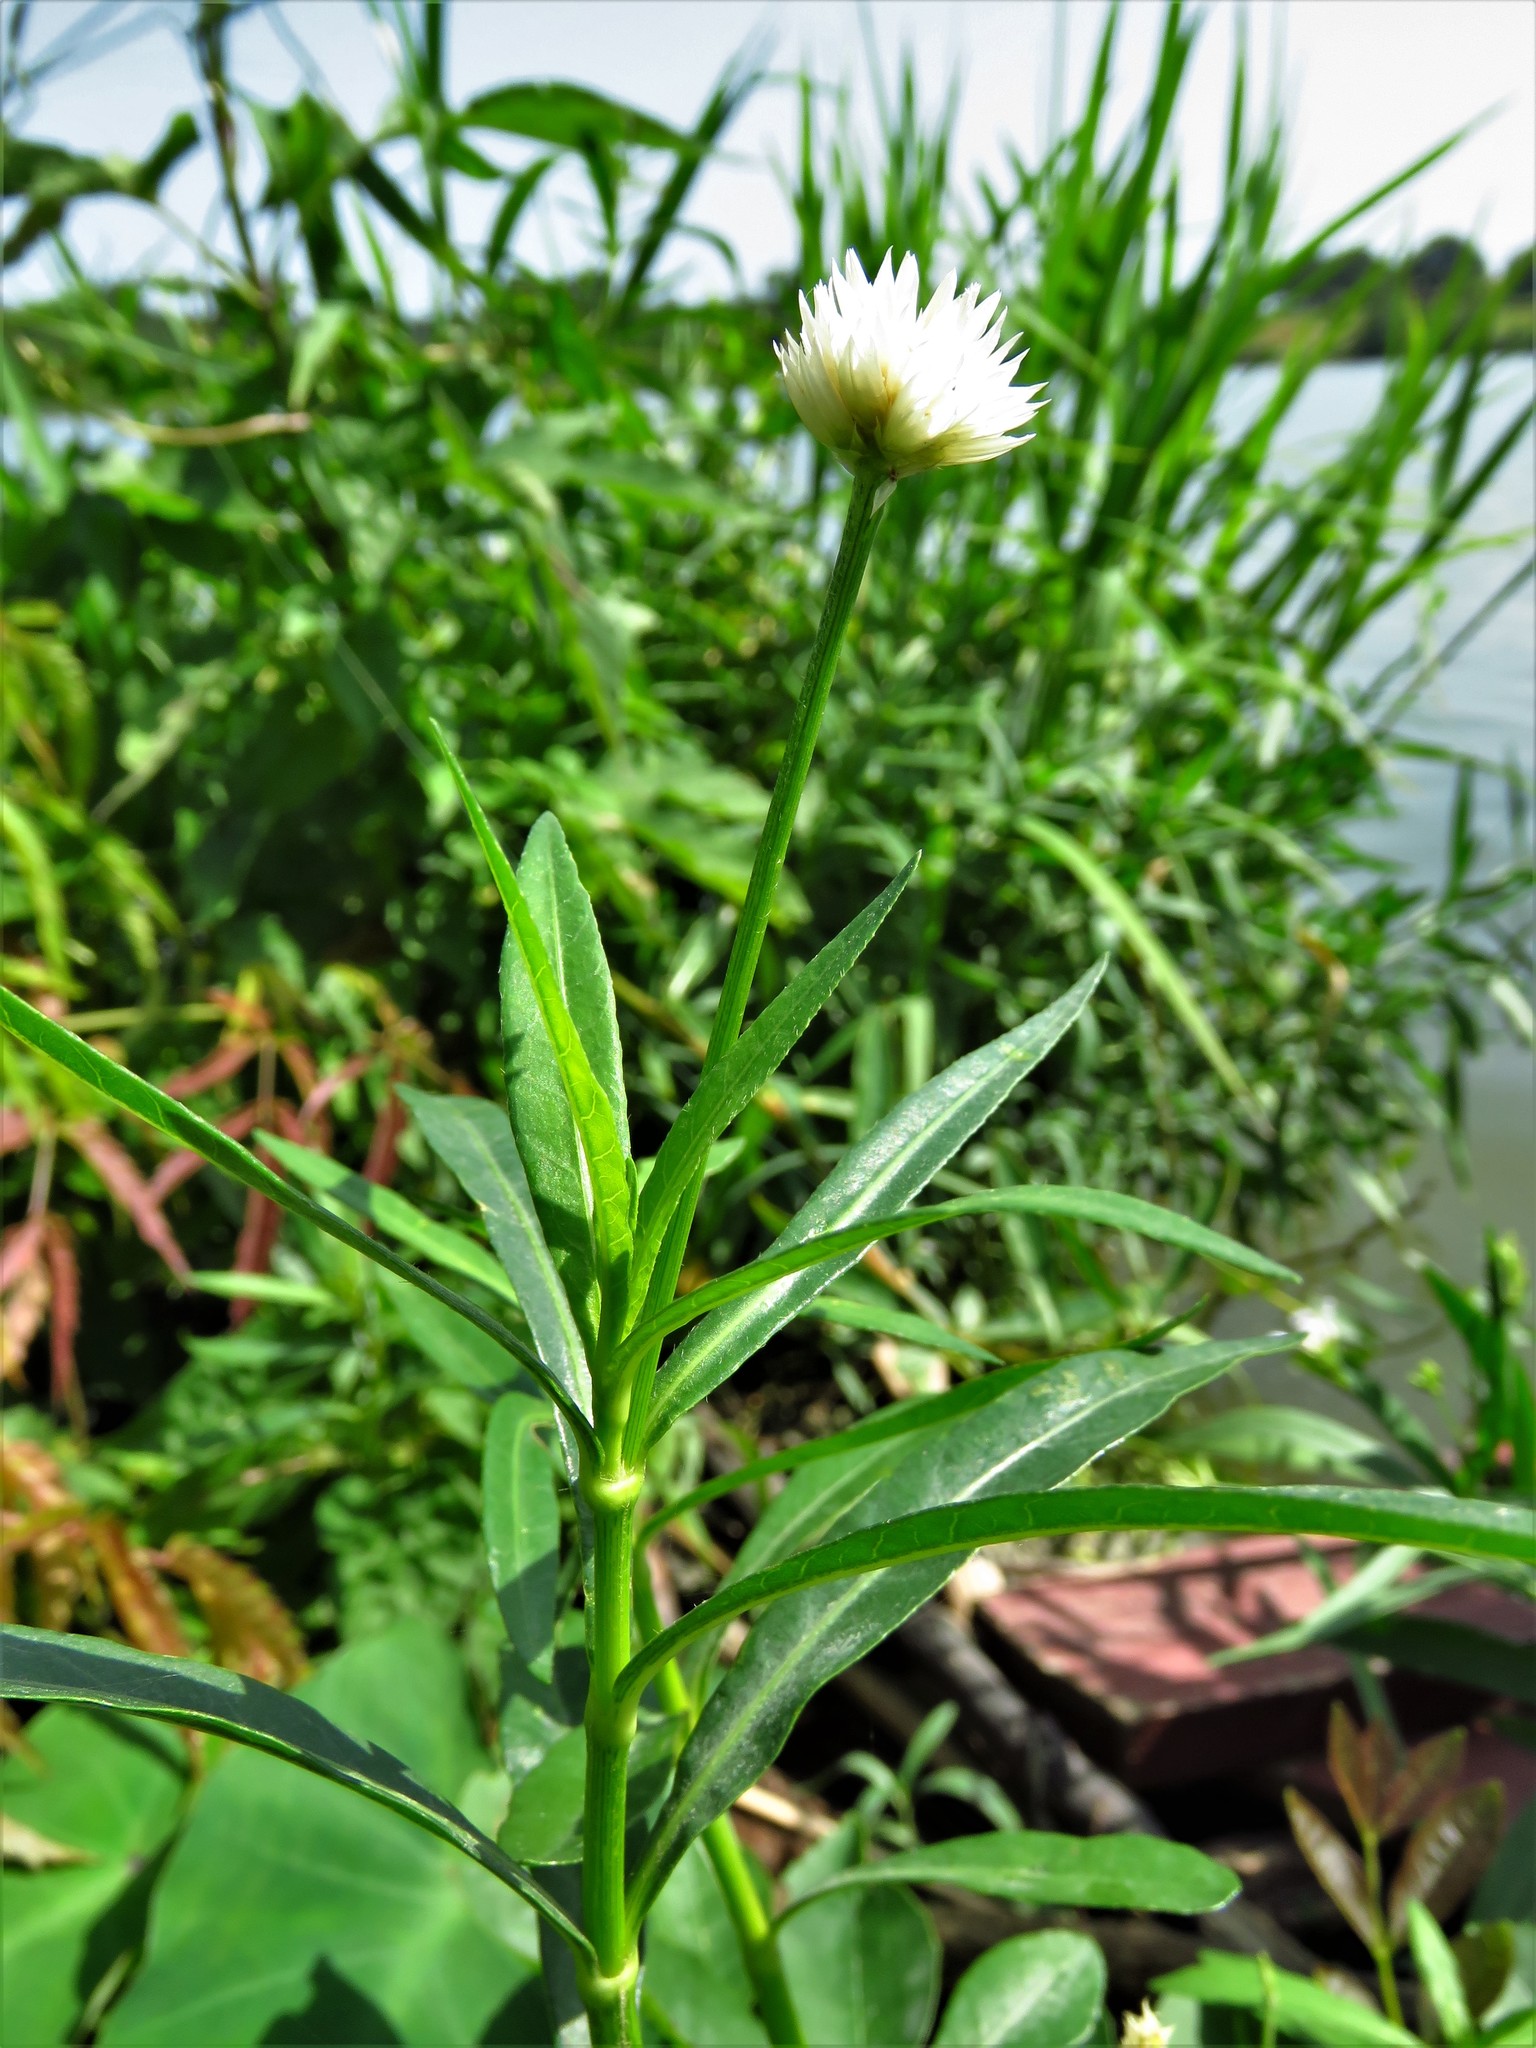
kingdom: Plantae
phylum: Tracheophyta
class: Magnoliopsida
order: Caryophyllales
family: Amaranthaceae
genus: Alternanthera
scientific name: Alternanthera philoxeroides
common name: Alligatorweed
